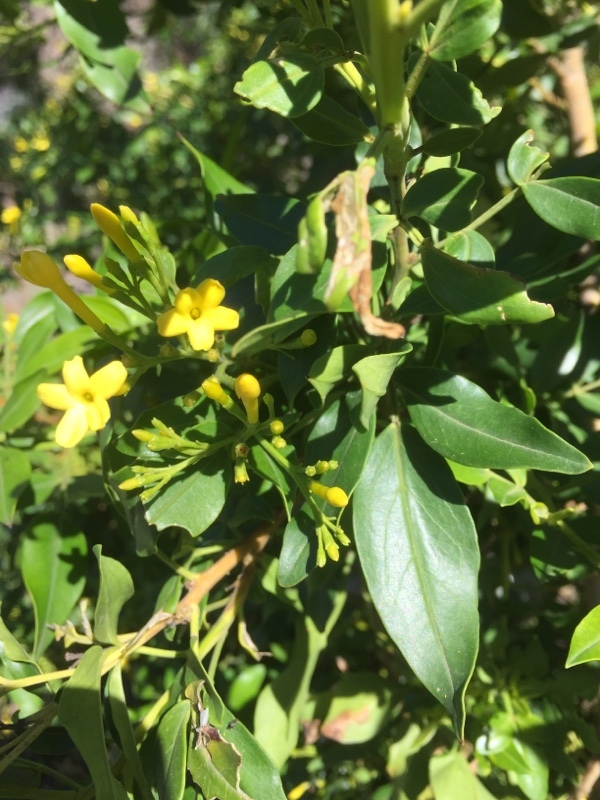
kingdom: Plantae
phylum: Tracheophyta
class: Magnoliopsida
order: Lamiales
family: Oleaceae
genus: Chrysojasminum
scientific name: Chrysojasminum odoratissimum
